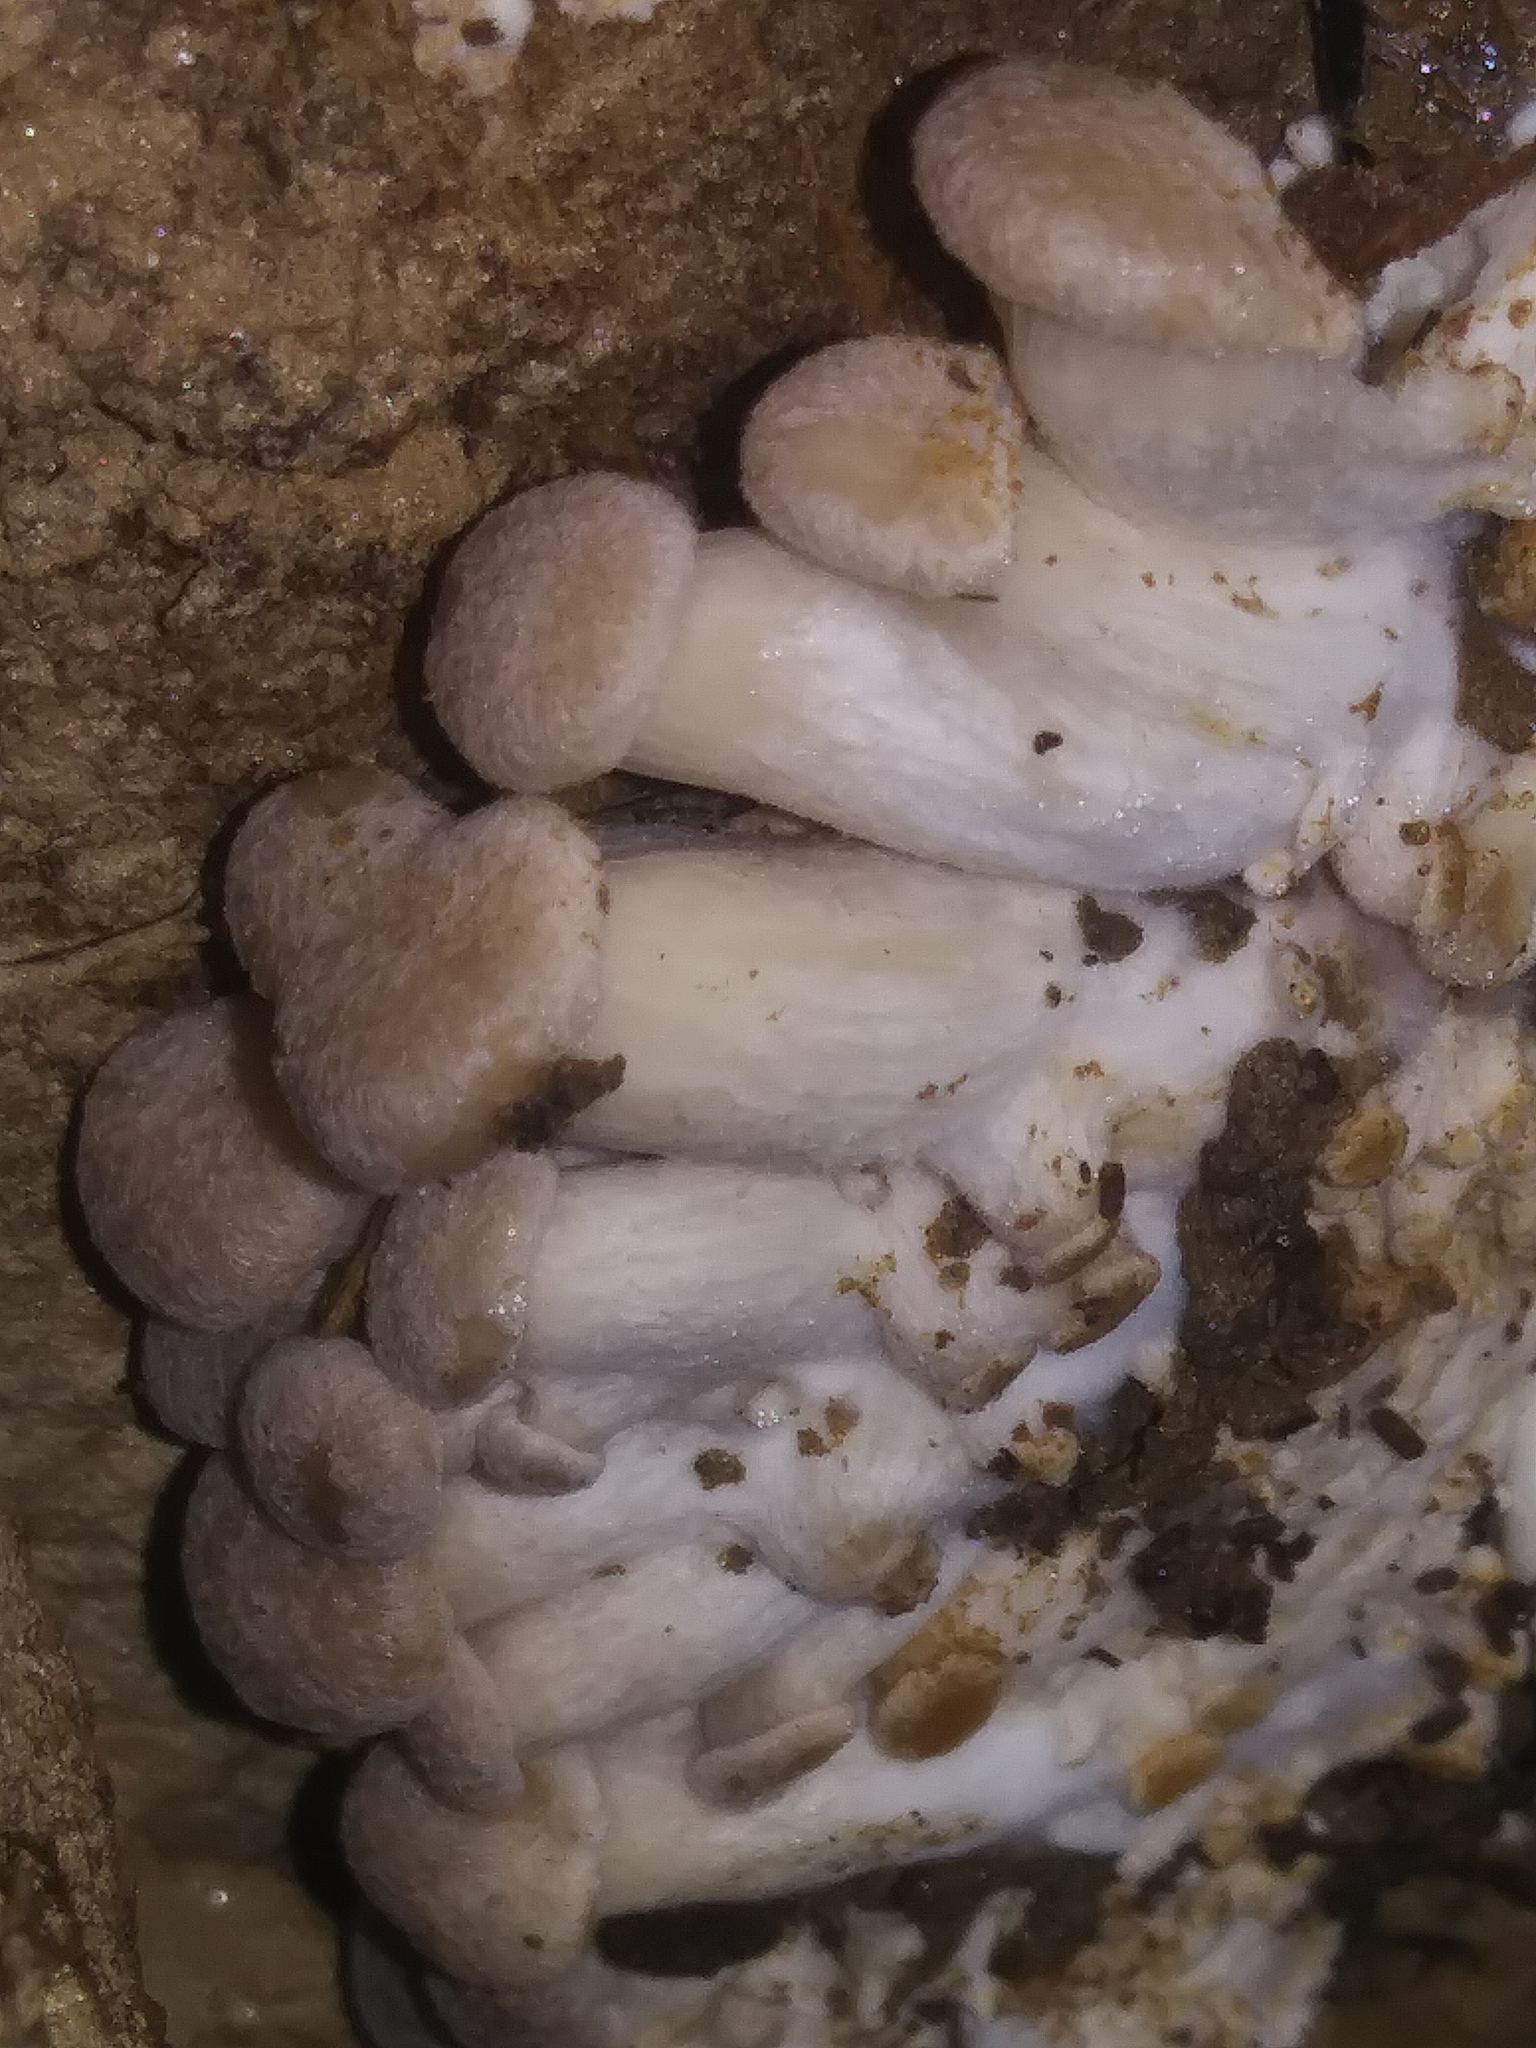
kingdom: Fungi
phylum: Basidiomycota
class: Agaricomycetes
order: Agaricales
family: Pleurotaceae
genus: Pleurotus
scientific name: Pleurotus ostreatus
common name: Oyster mushroom
